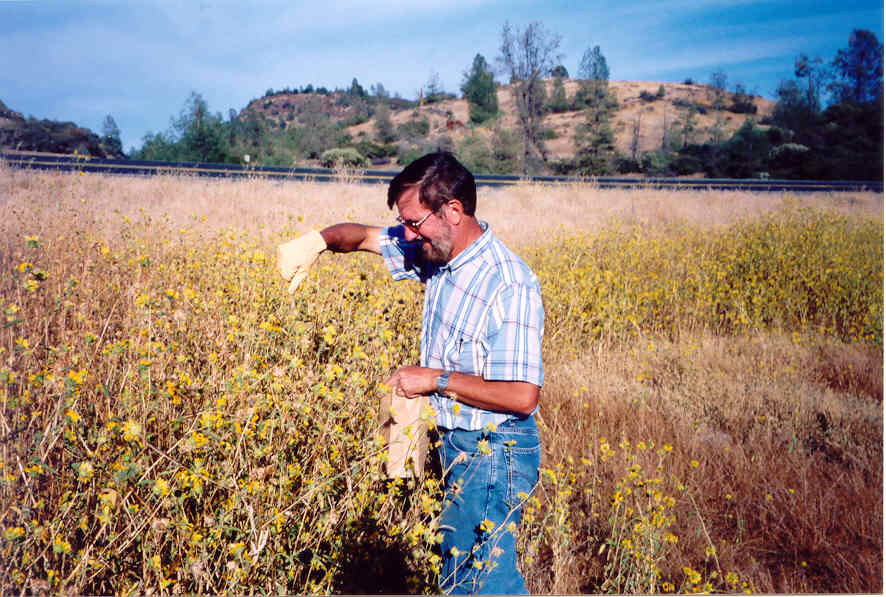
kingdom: Plantae
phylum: Tracheophyta
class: Magnoliopsida
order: Asterales
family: Asteraceae
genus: Helianthus
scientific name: Helianthus bolanderi
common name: Bolander's sunflower
